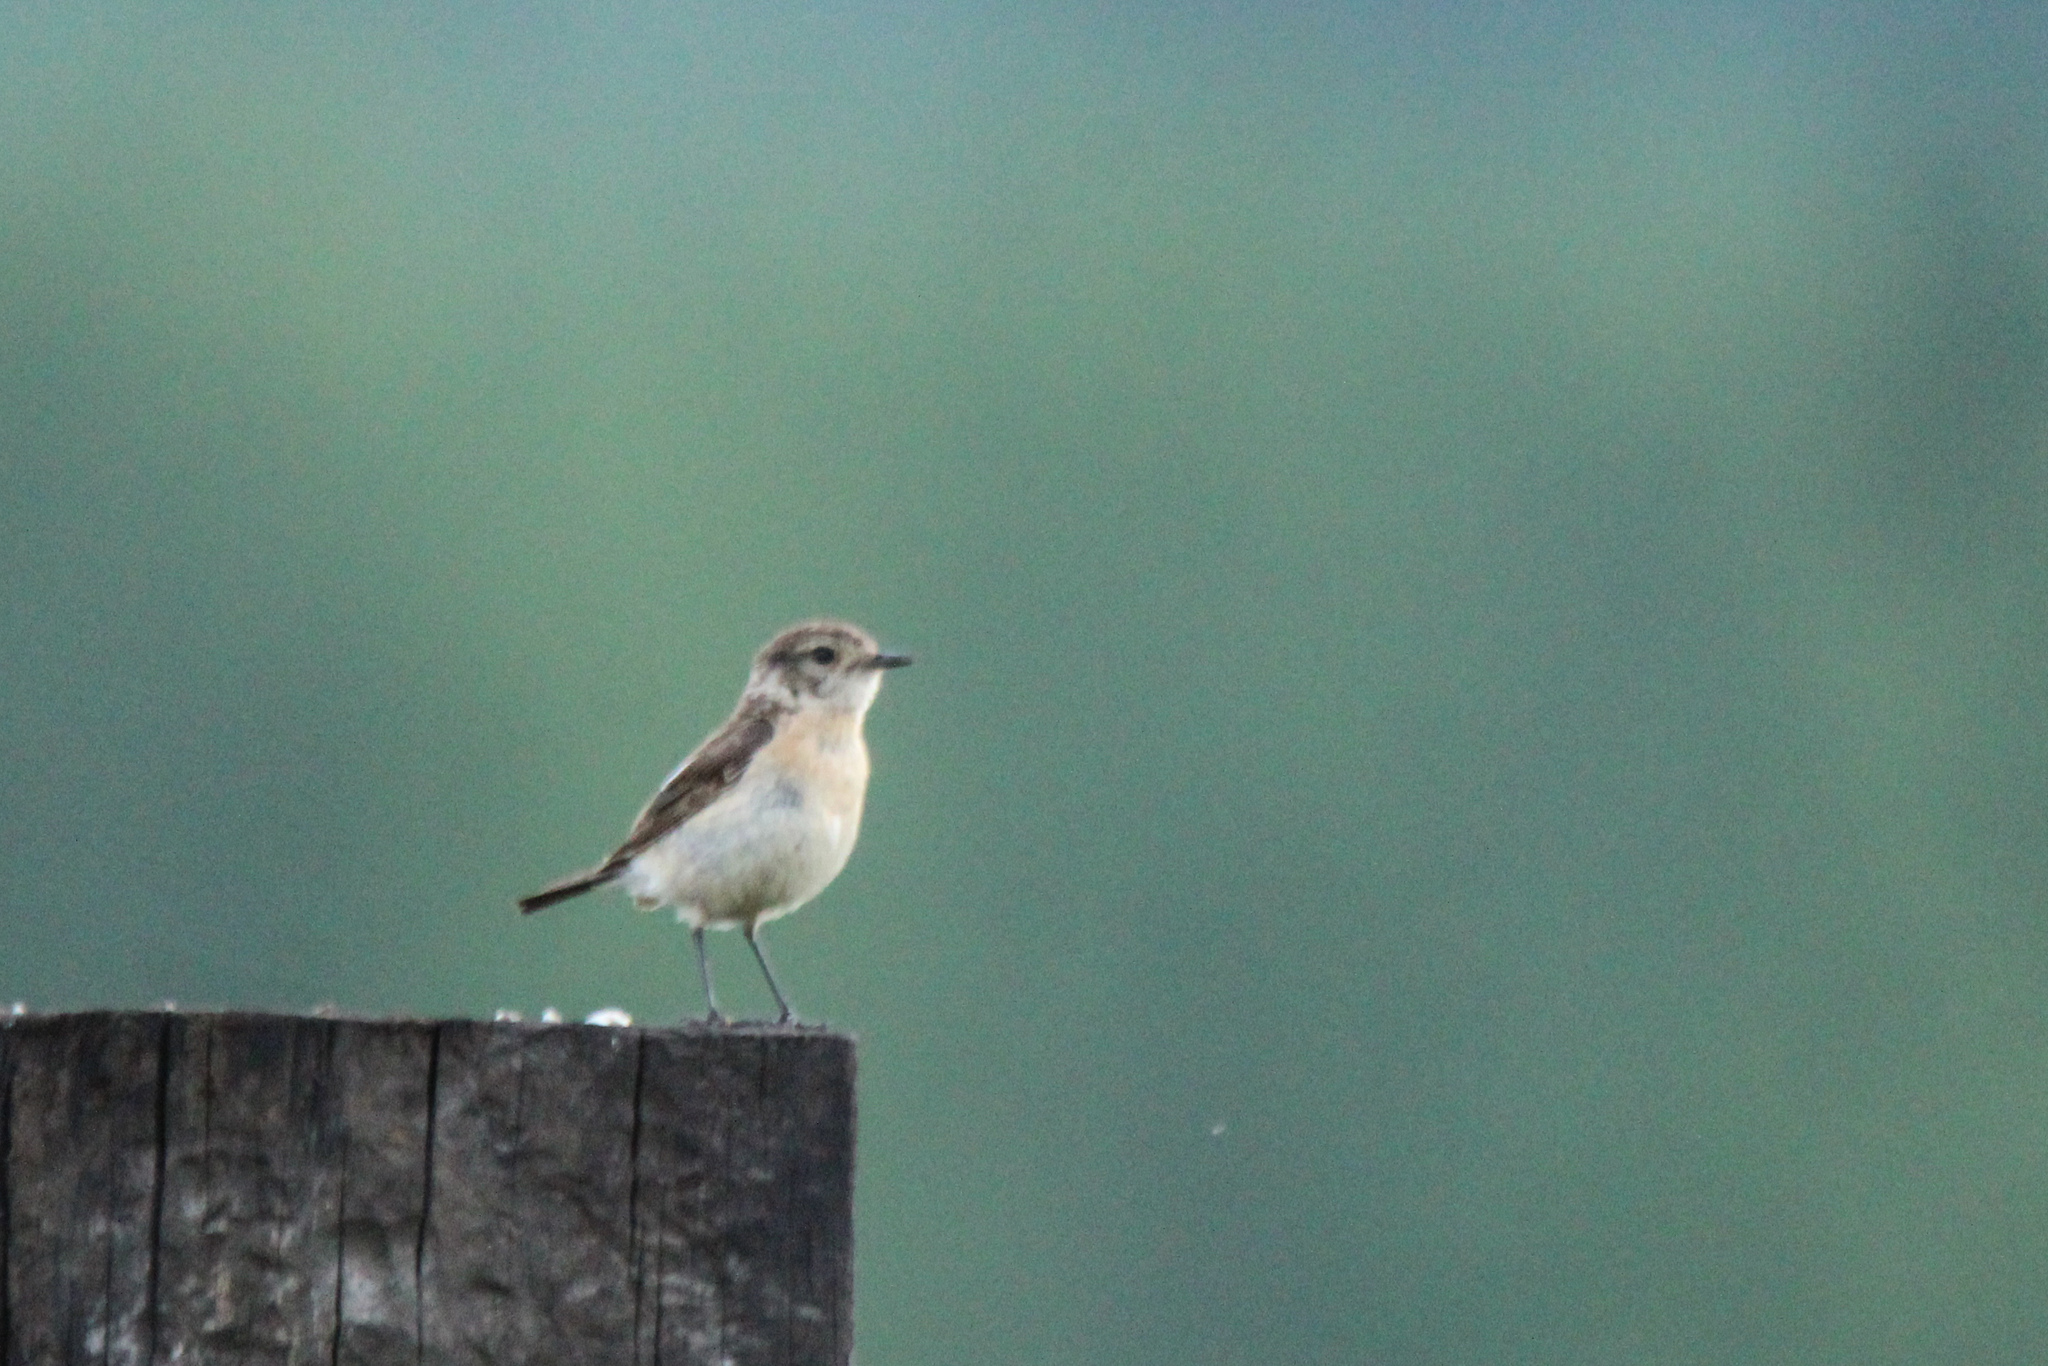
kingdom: Animalia
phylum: Chordata
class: Aves
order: Passeriformes
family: Muscicapidae
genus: Saxicola
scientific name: Saxicola maurus
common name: Siberian stonechat
